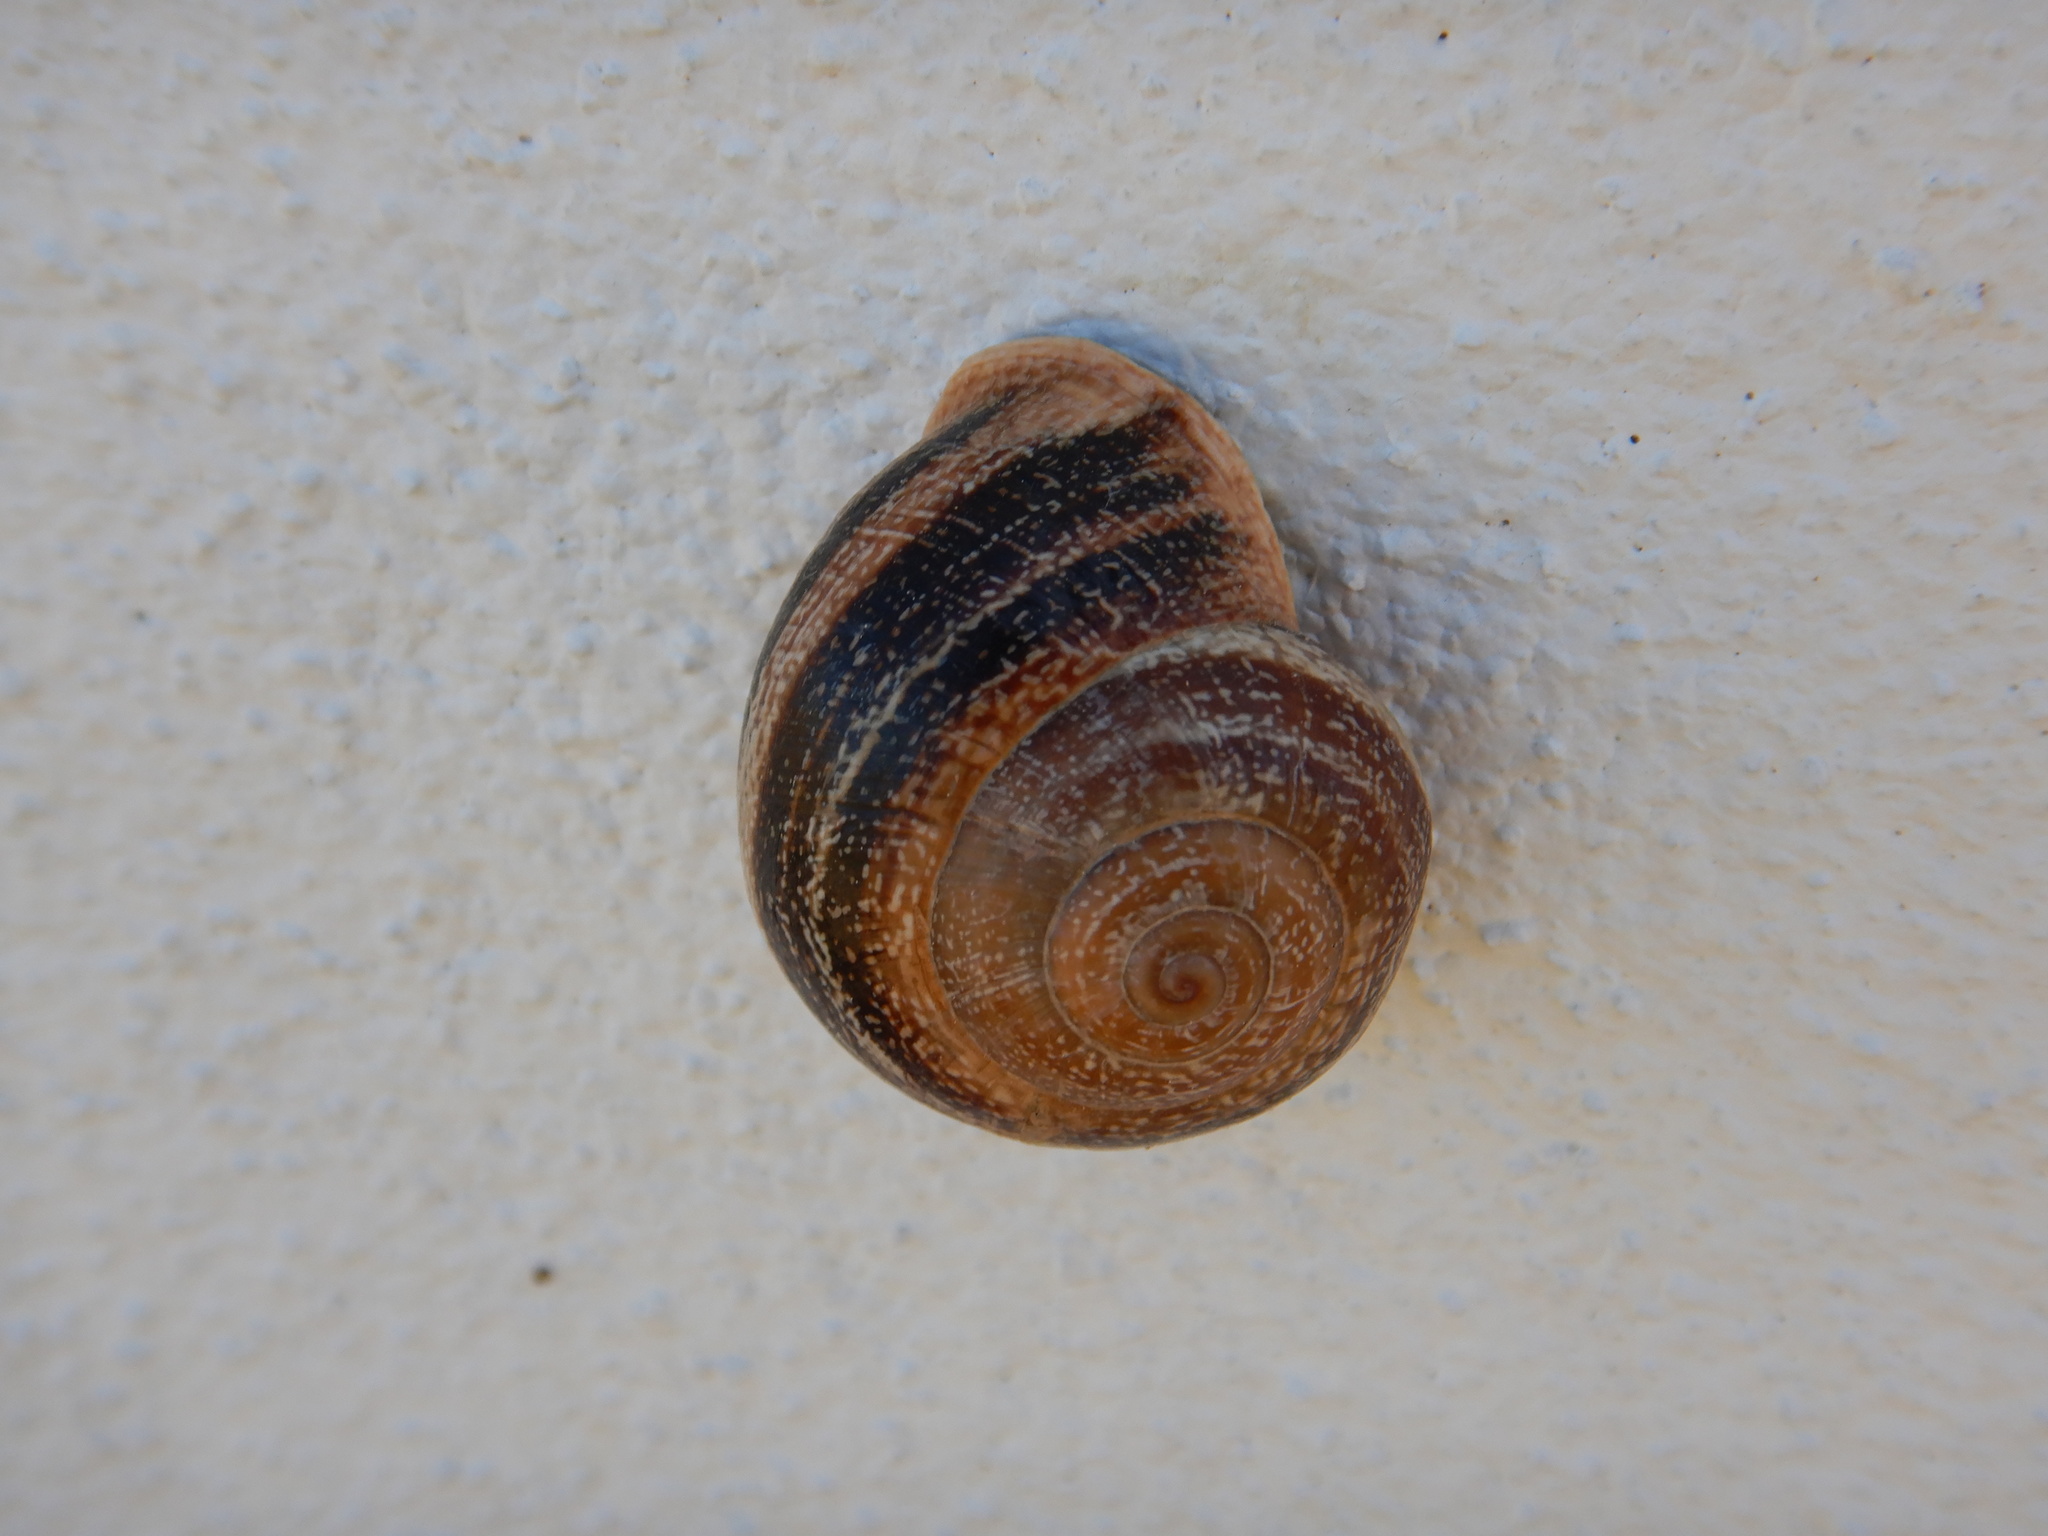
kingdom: Animalia
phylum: Mollusca
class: Gastropoda
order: Stylommatophora
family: Helicidae
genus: Otala
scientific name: Otala lactea
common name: Milk snail
